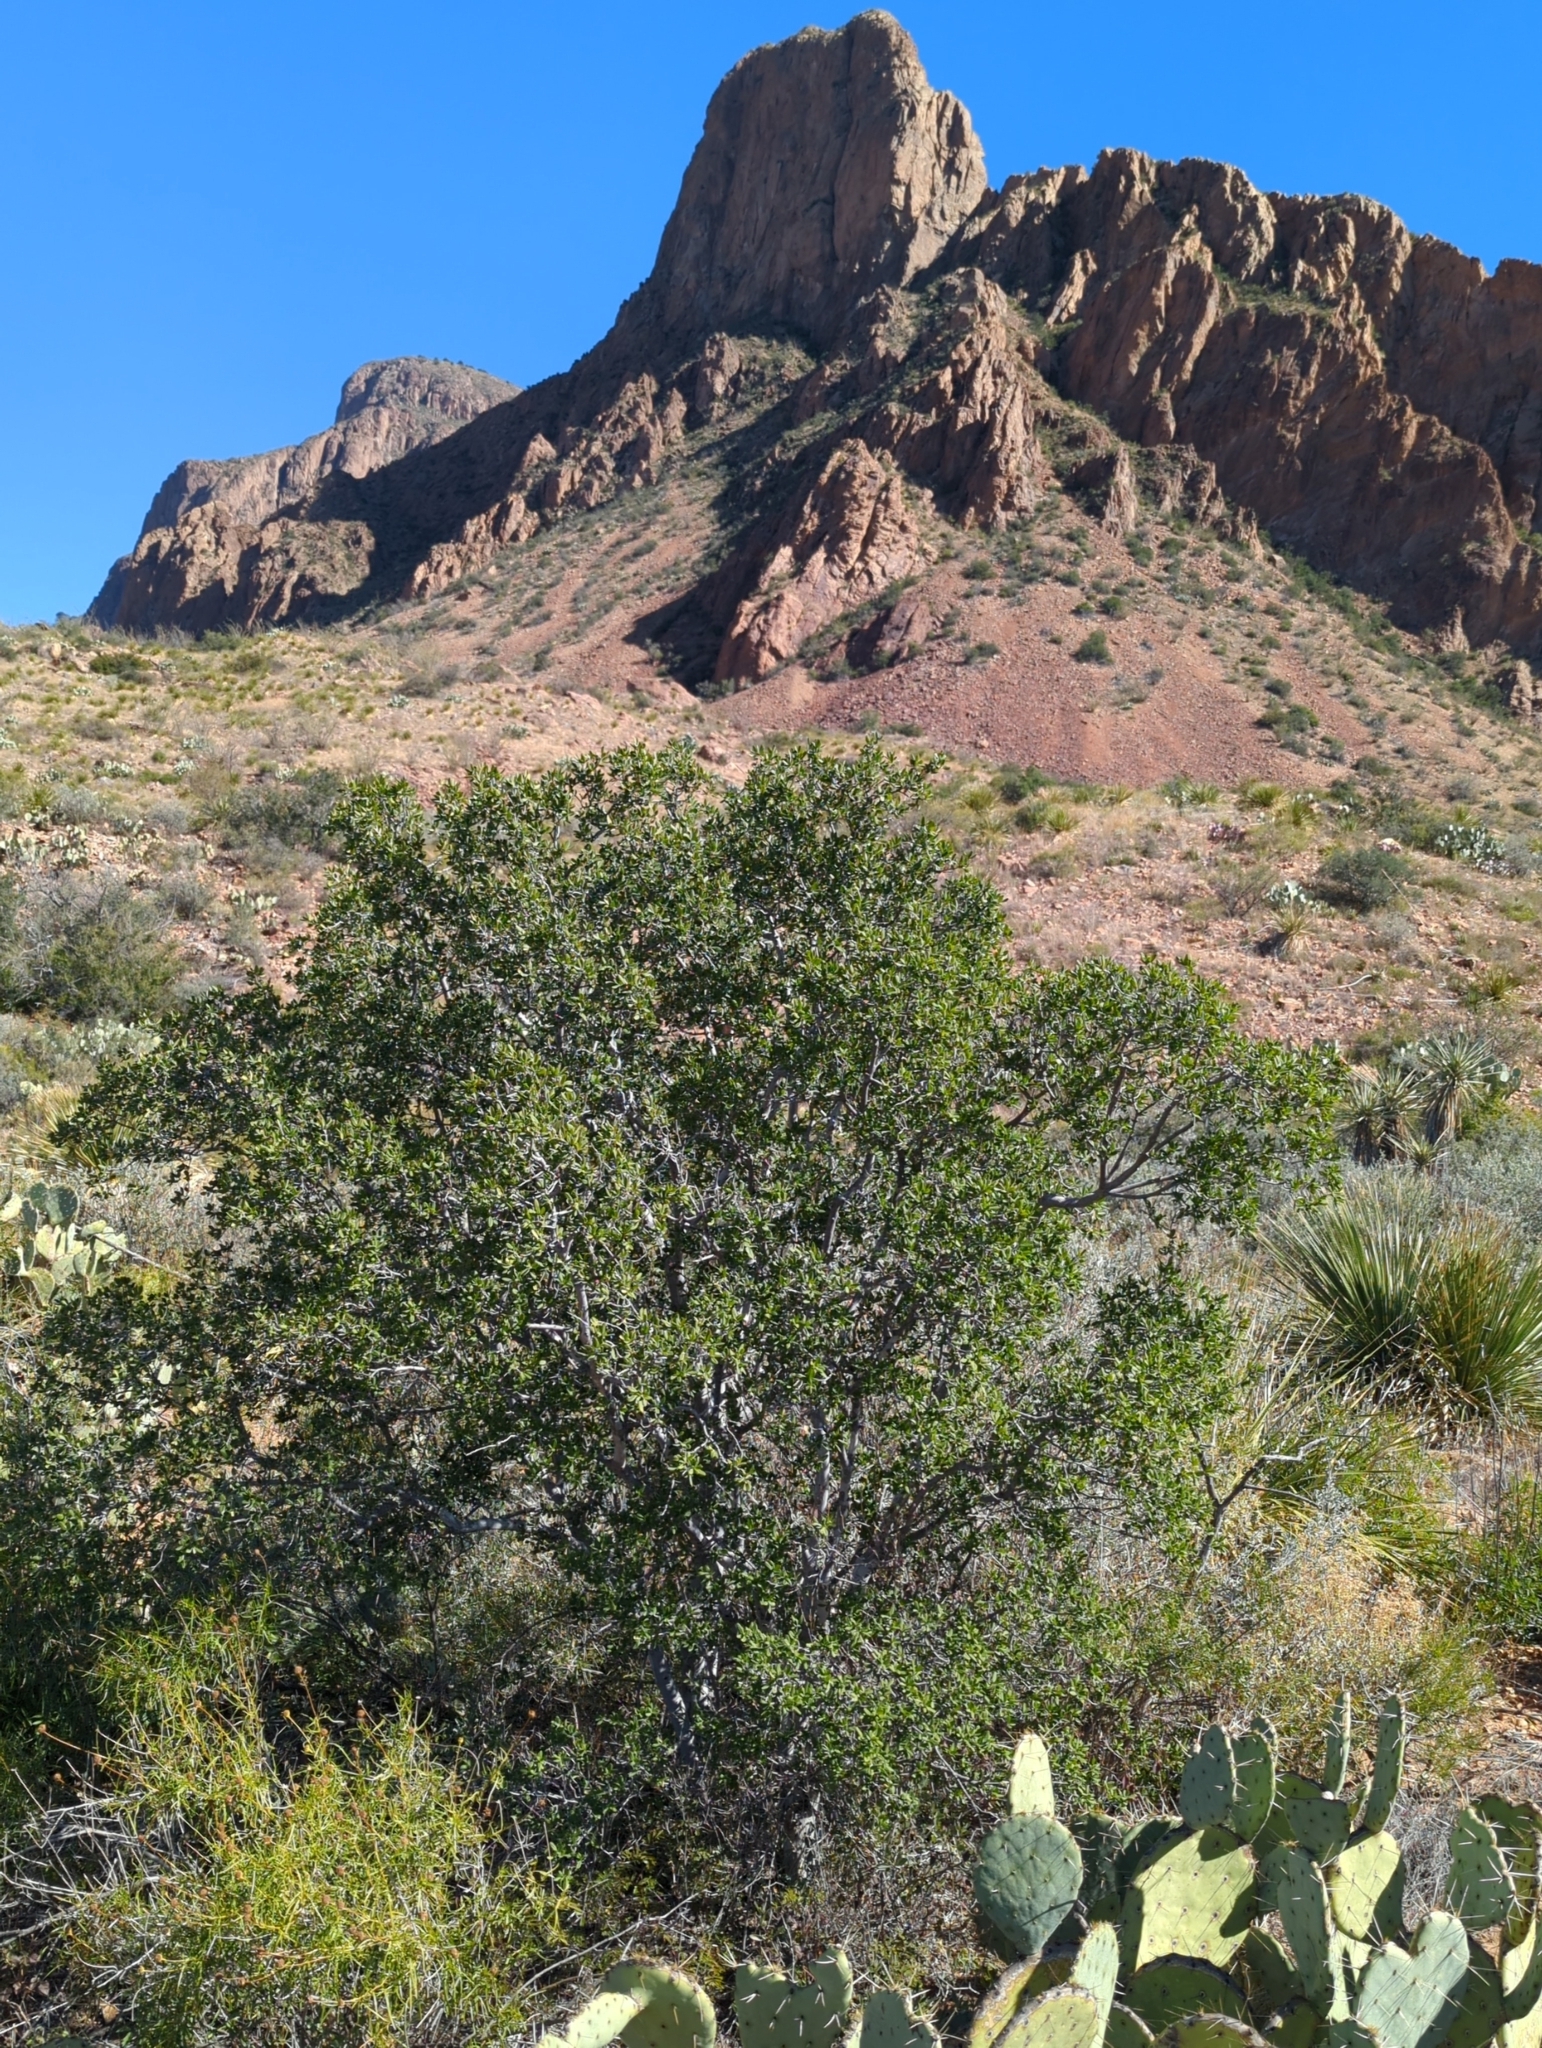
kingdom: Plantae
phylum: Tracheophyta
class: Magnoliopsida
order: Ericales
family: Ebenaceae
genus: Diospyros
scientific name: Diospyros texana
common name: Texas persimmon
